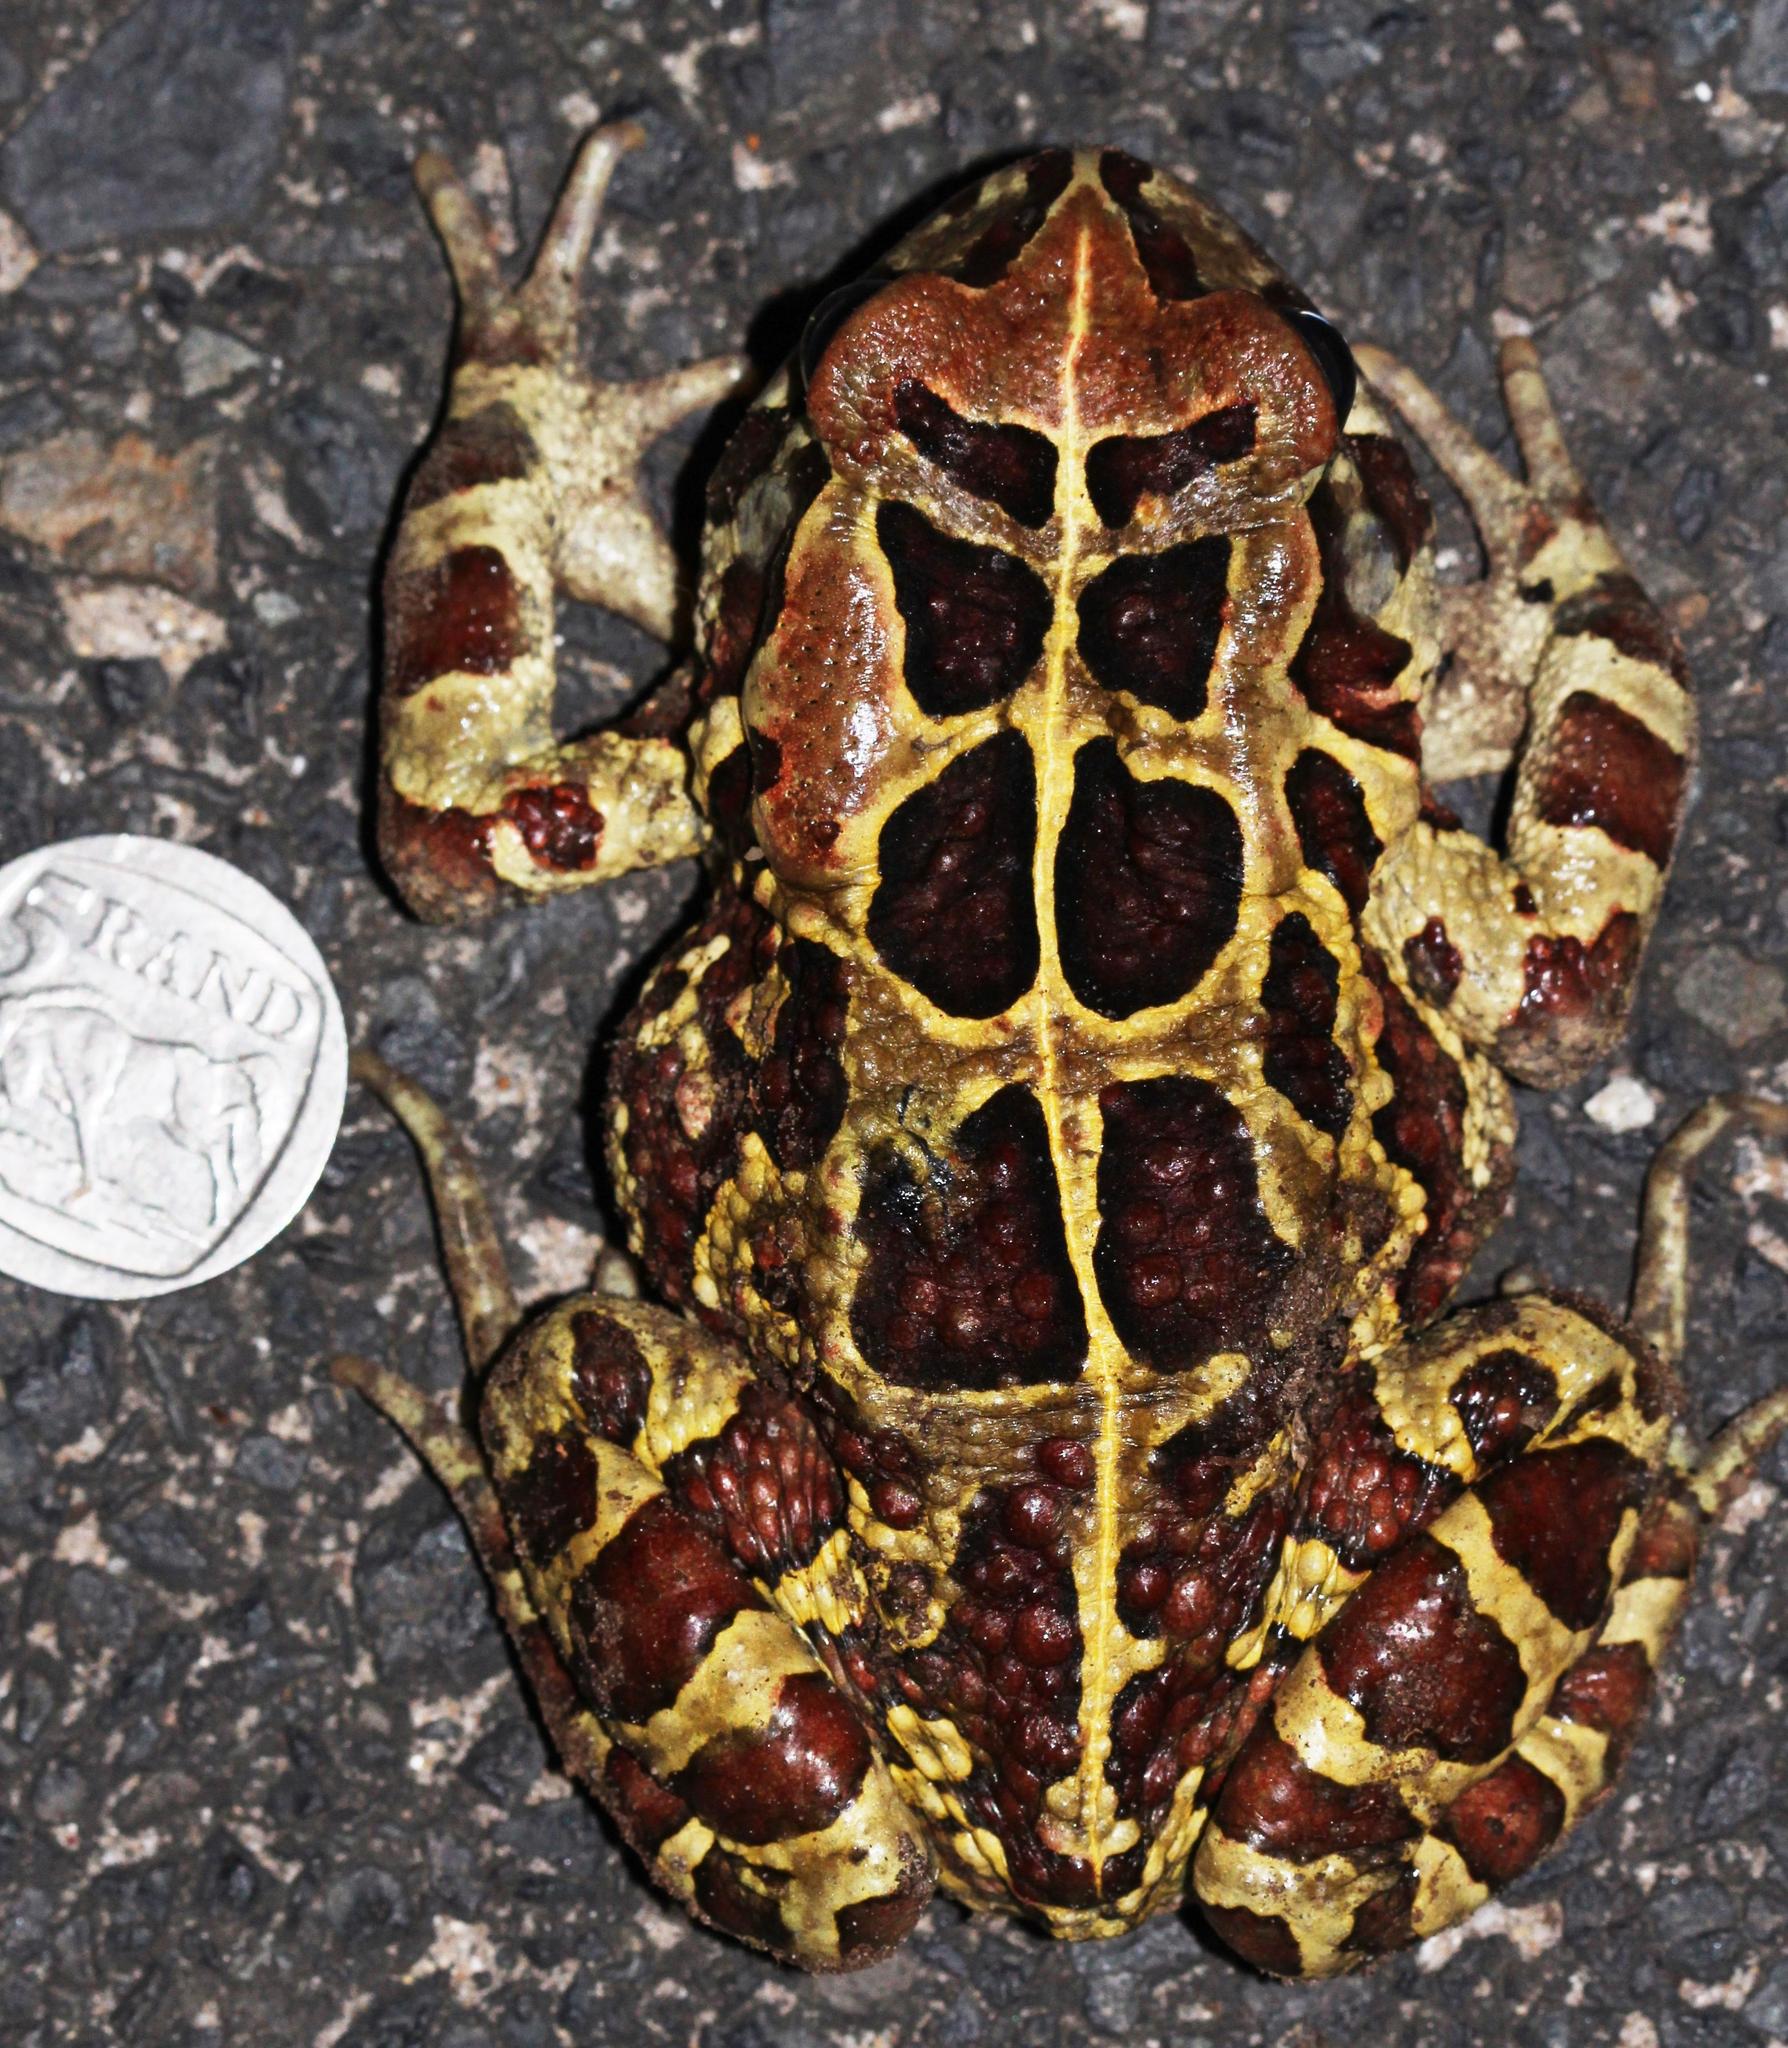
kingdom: Animalia
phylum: Chordata
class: Amphibia
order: Anura
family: Bufonidae
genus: Sclerophrys
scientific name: Sclerophrys pantherina
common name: Panther toad
